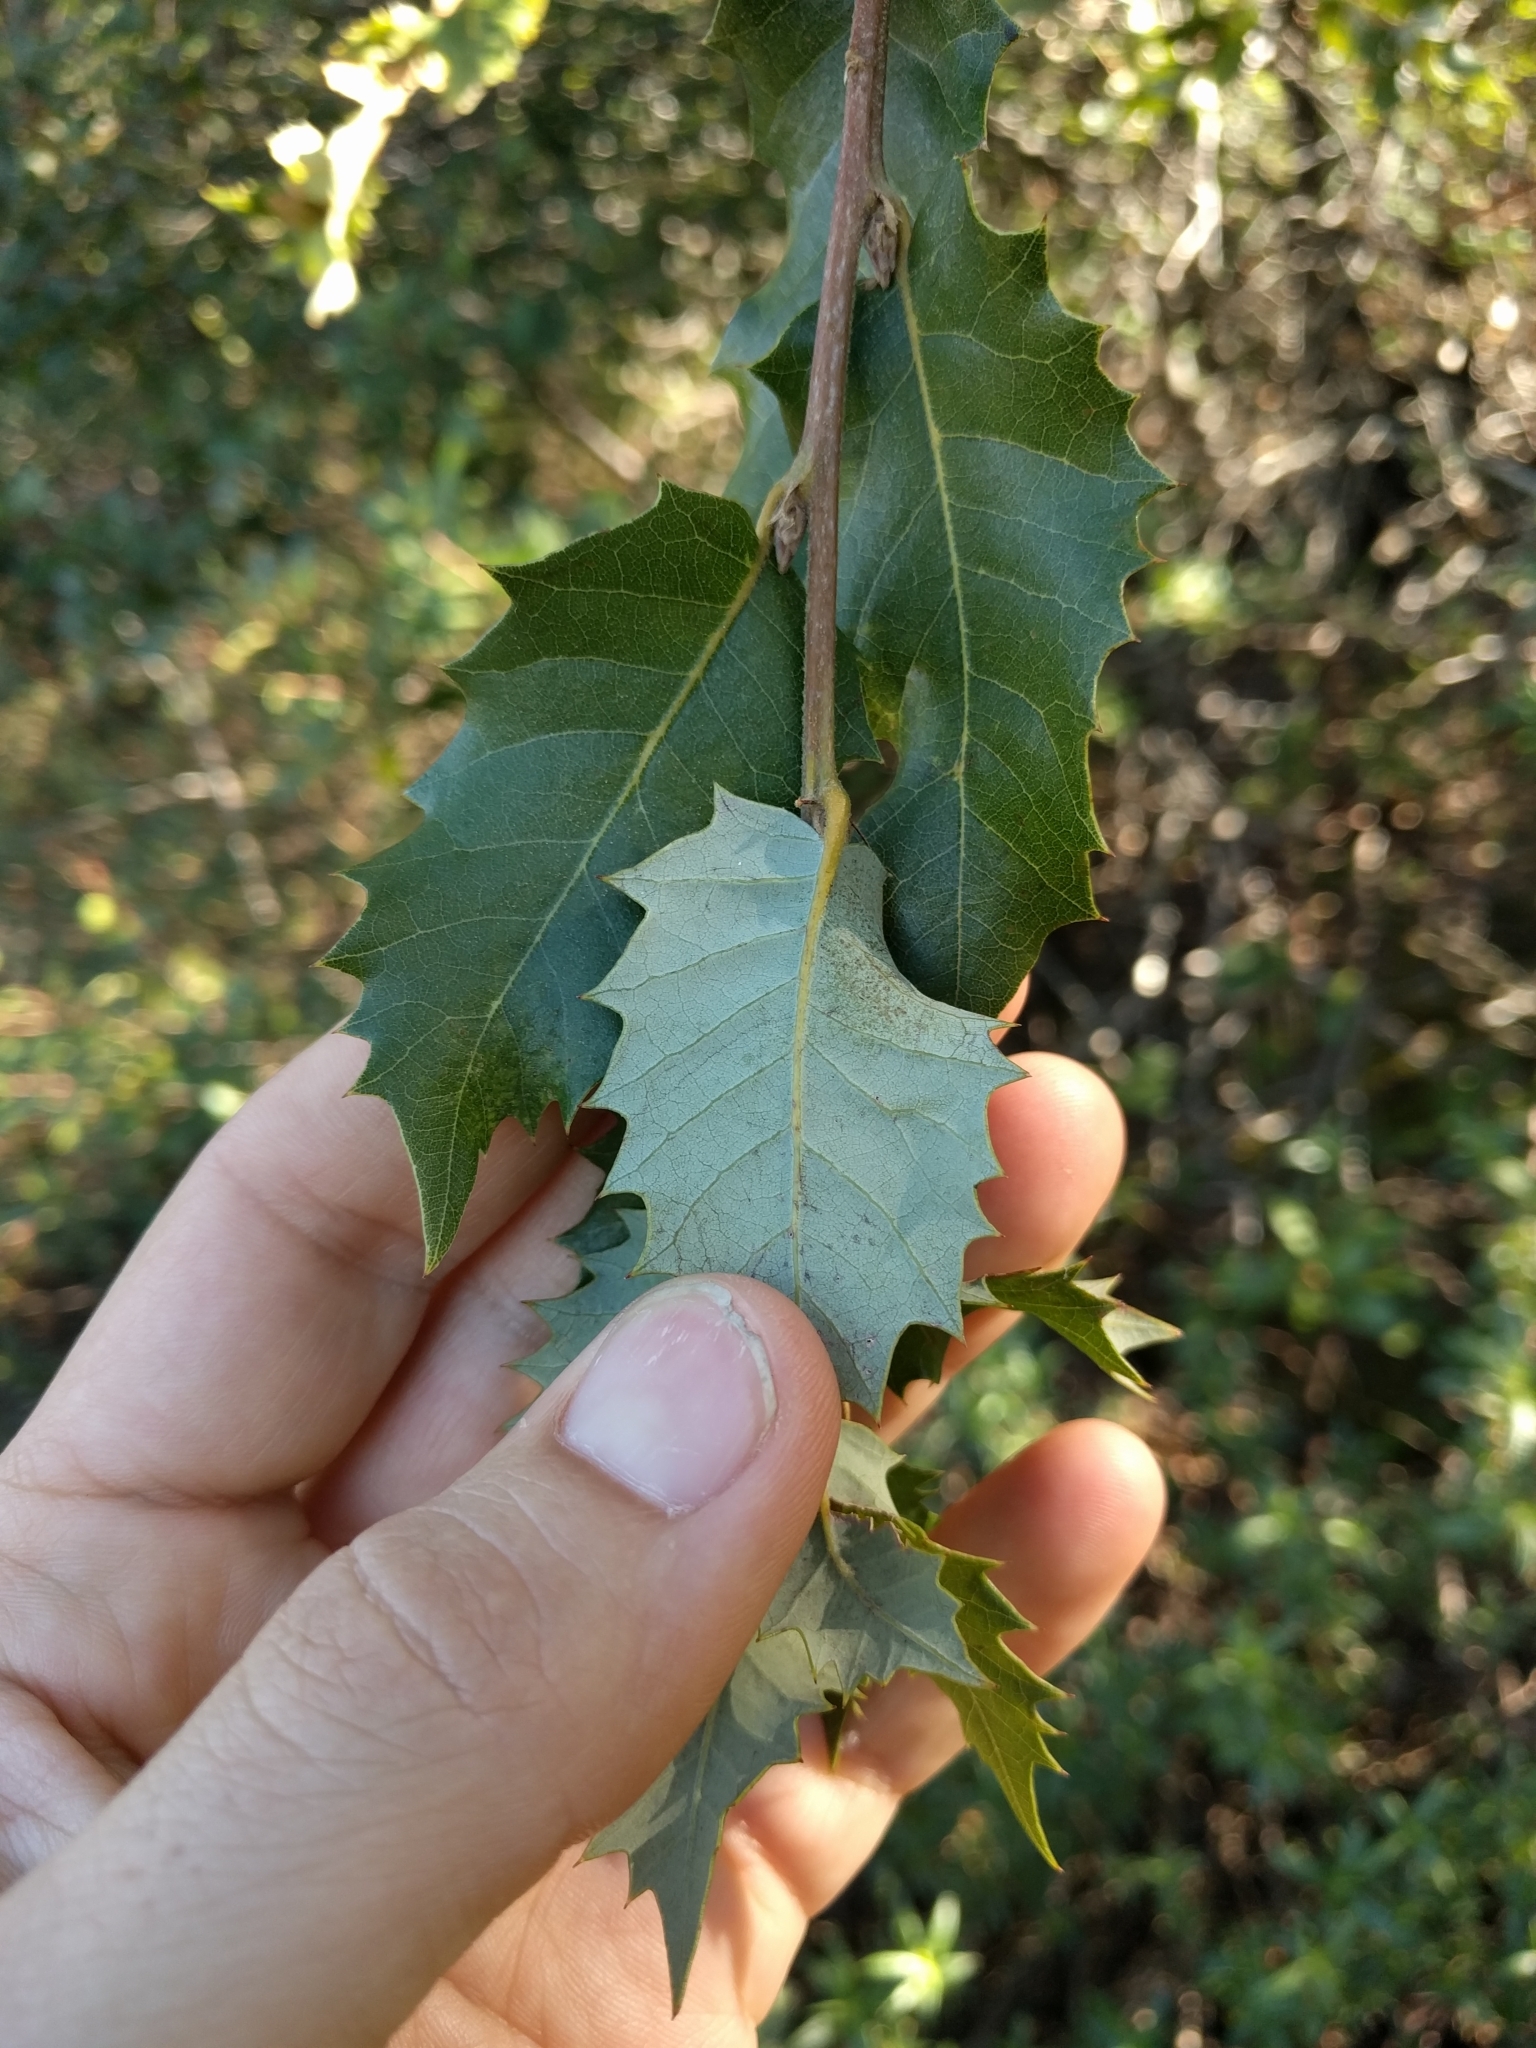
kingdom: Plantae
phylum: Tracheophyta
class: Magnoliopsida
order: Fagales
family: Fagaceae
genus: Quercus
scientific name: Quercus chrysolepis
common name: Canyon live oak
